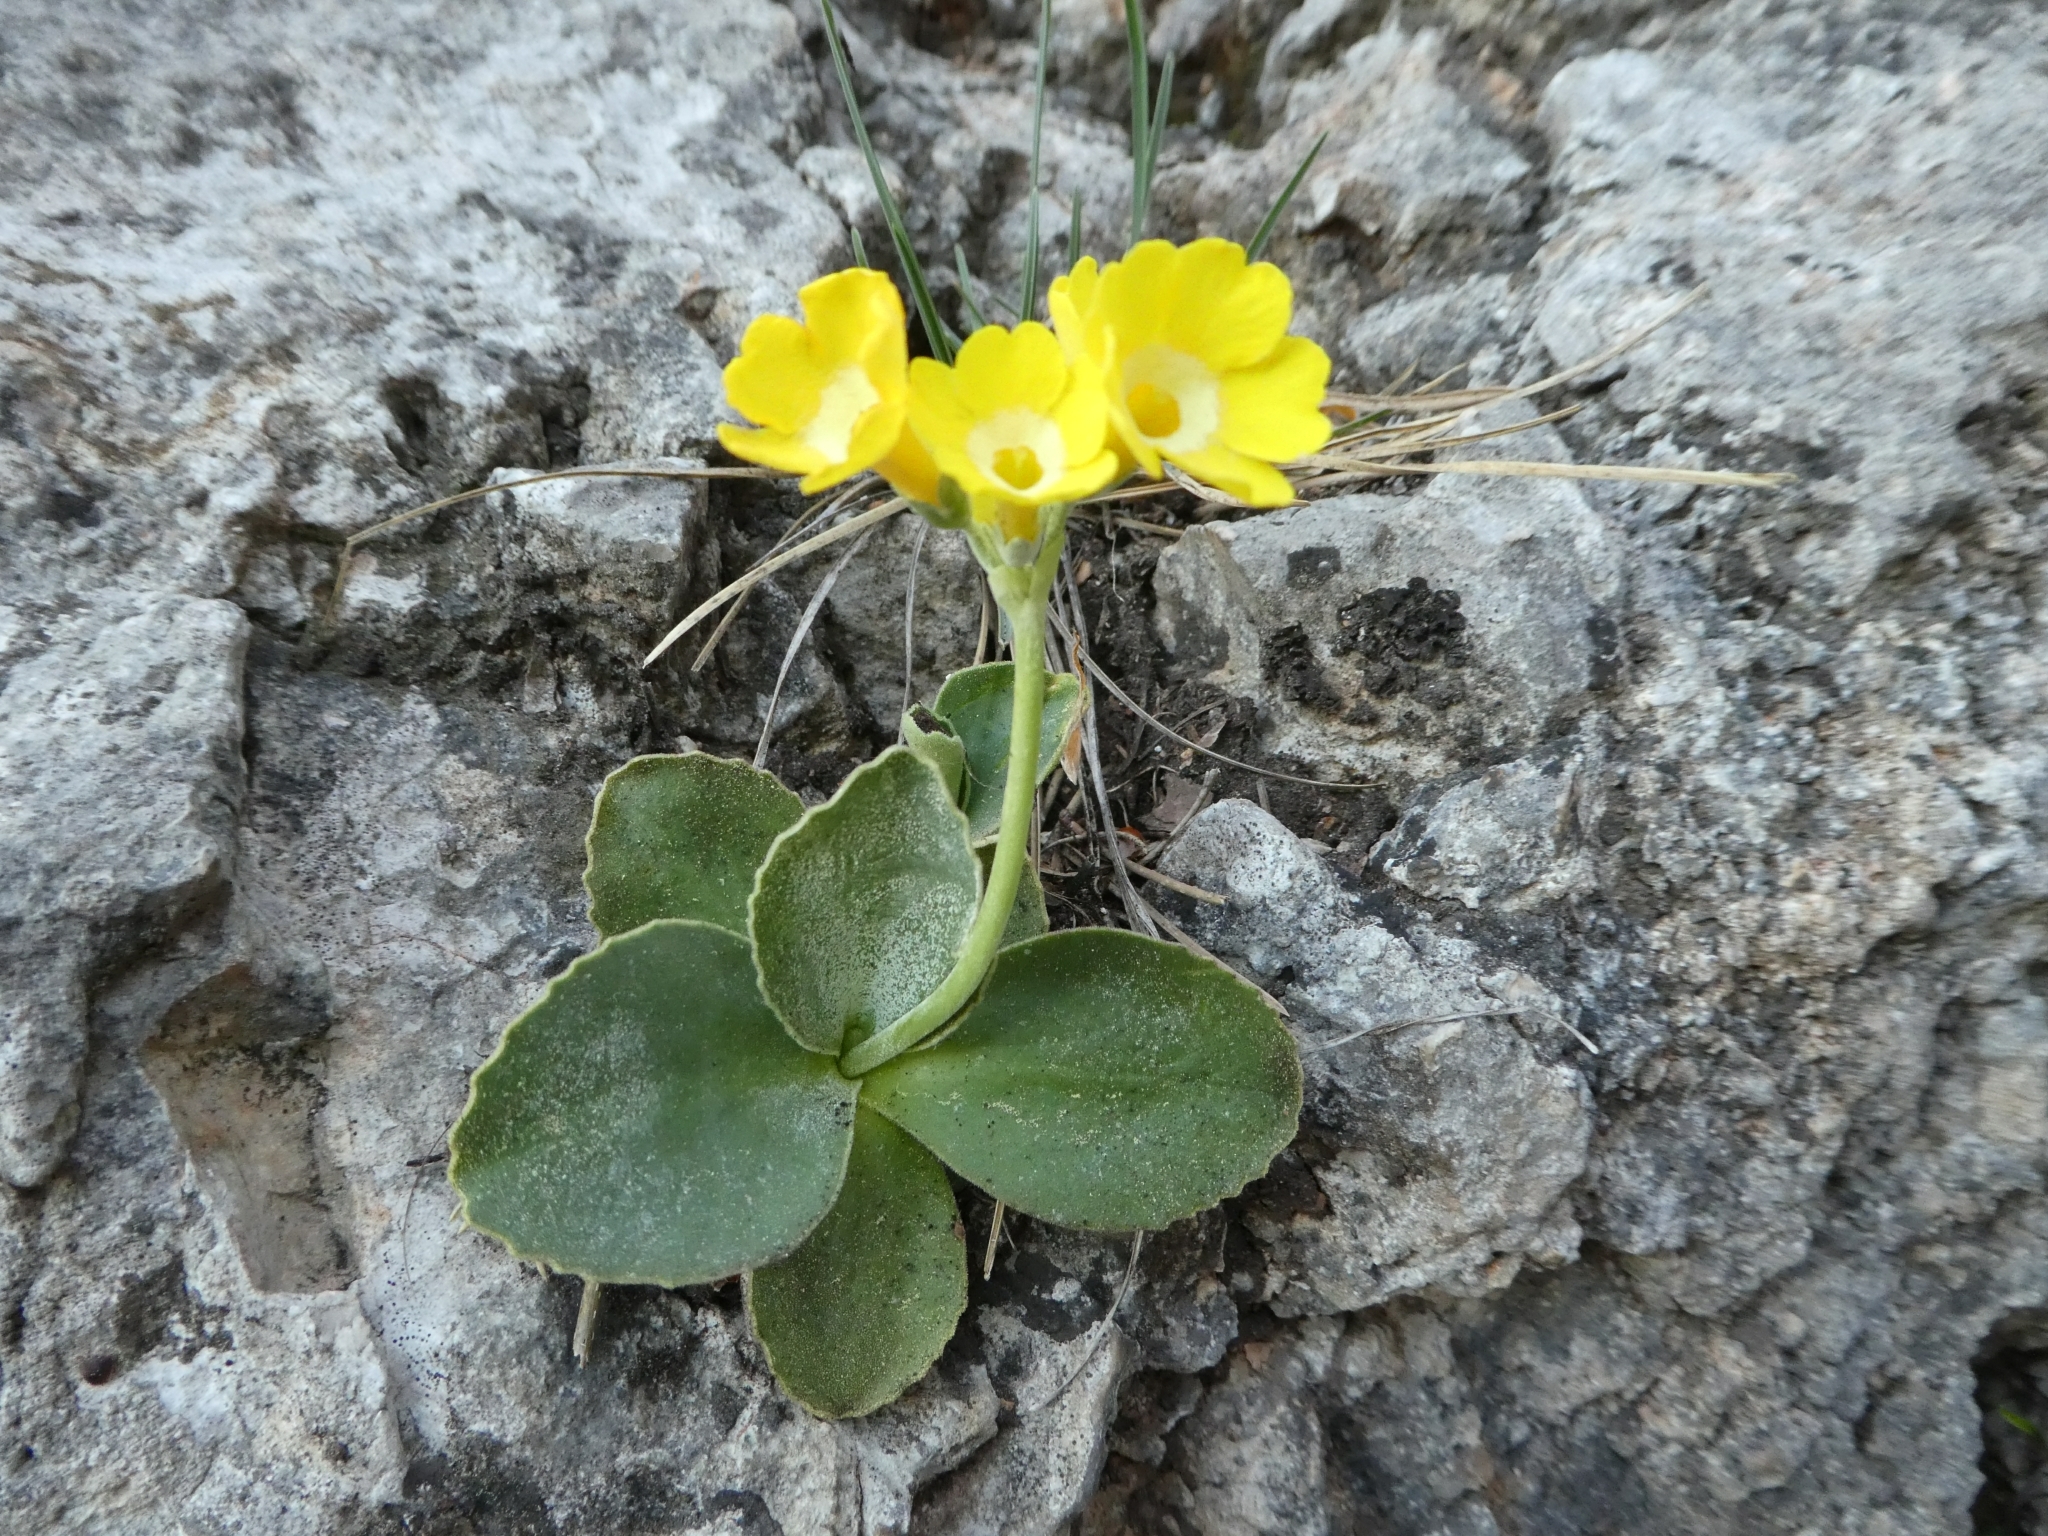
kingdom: Plantae
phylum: Tracheophyta
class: Magnoliopsida
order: Ericales
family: Primulaceae
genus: Primula
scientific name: Primula auricula
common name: Auricula
